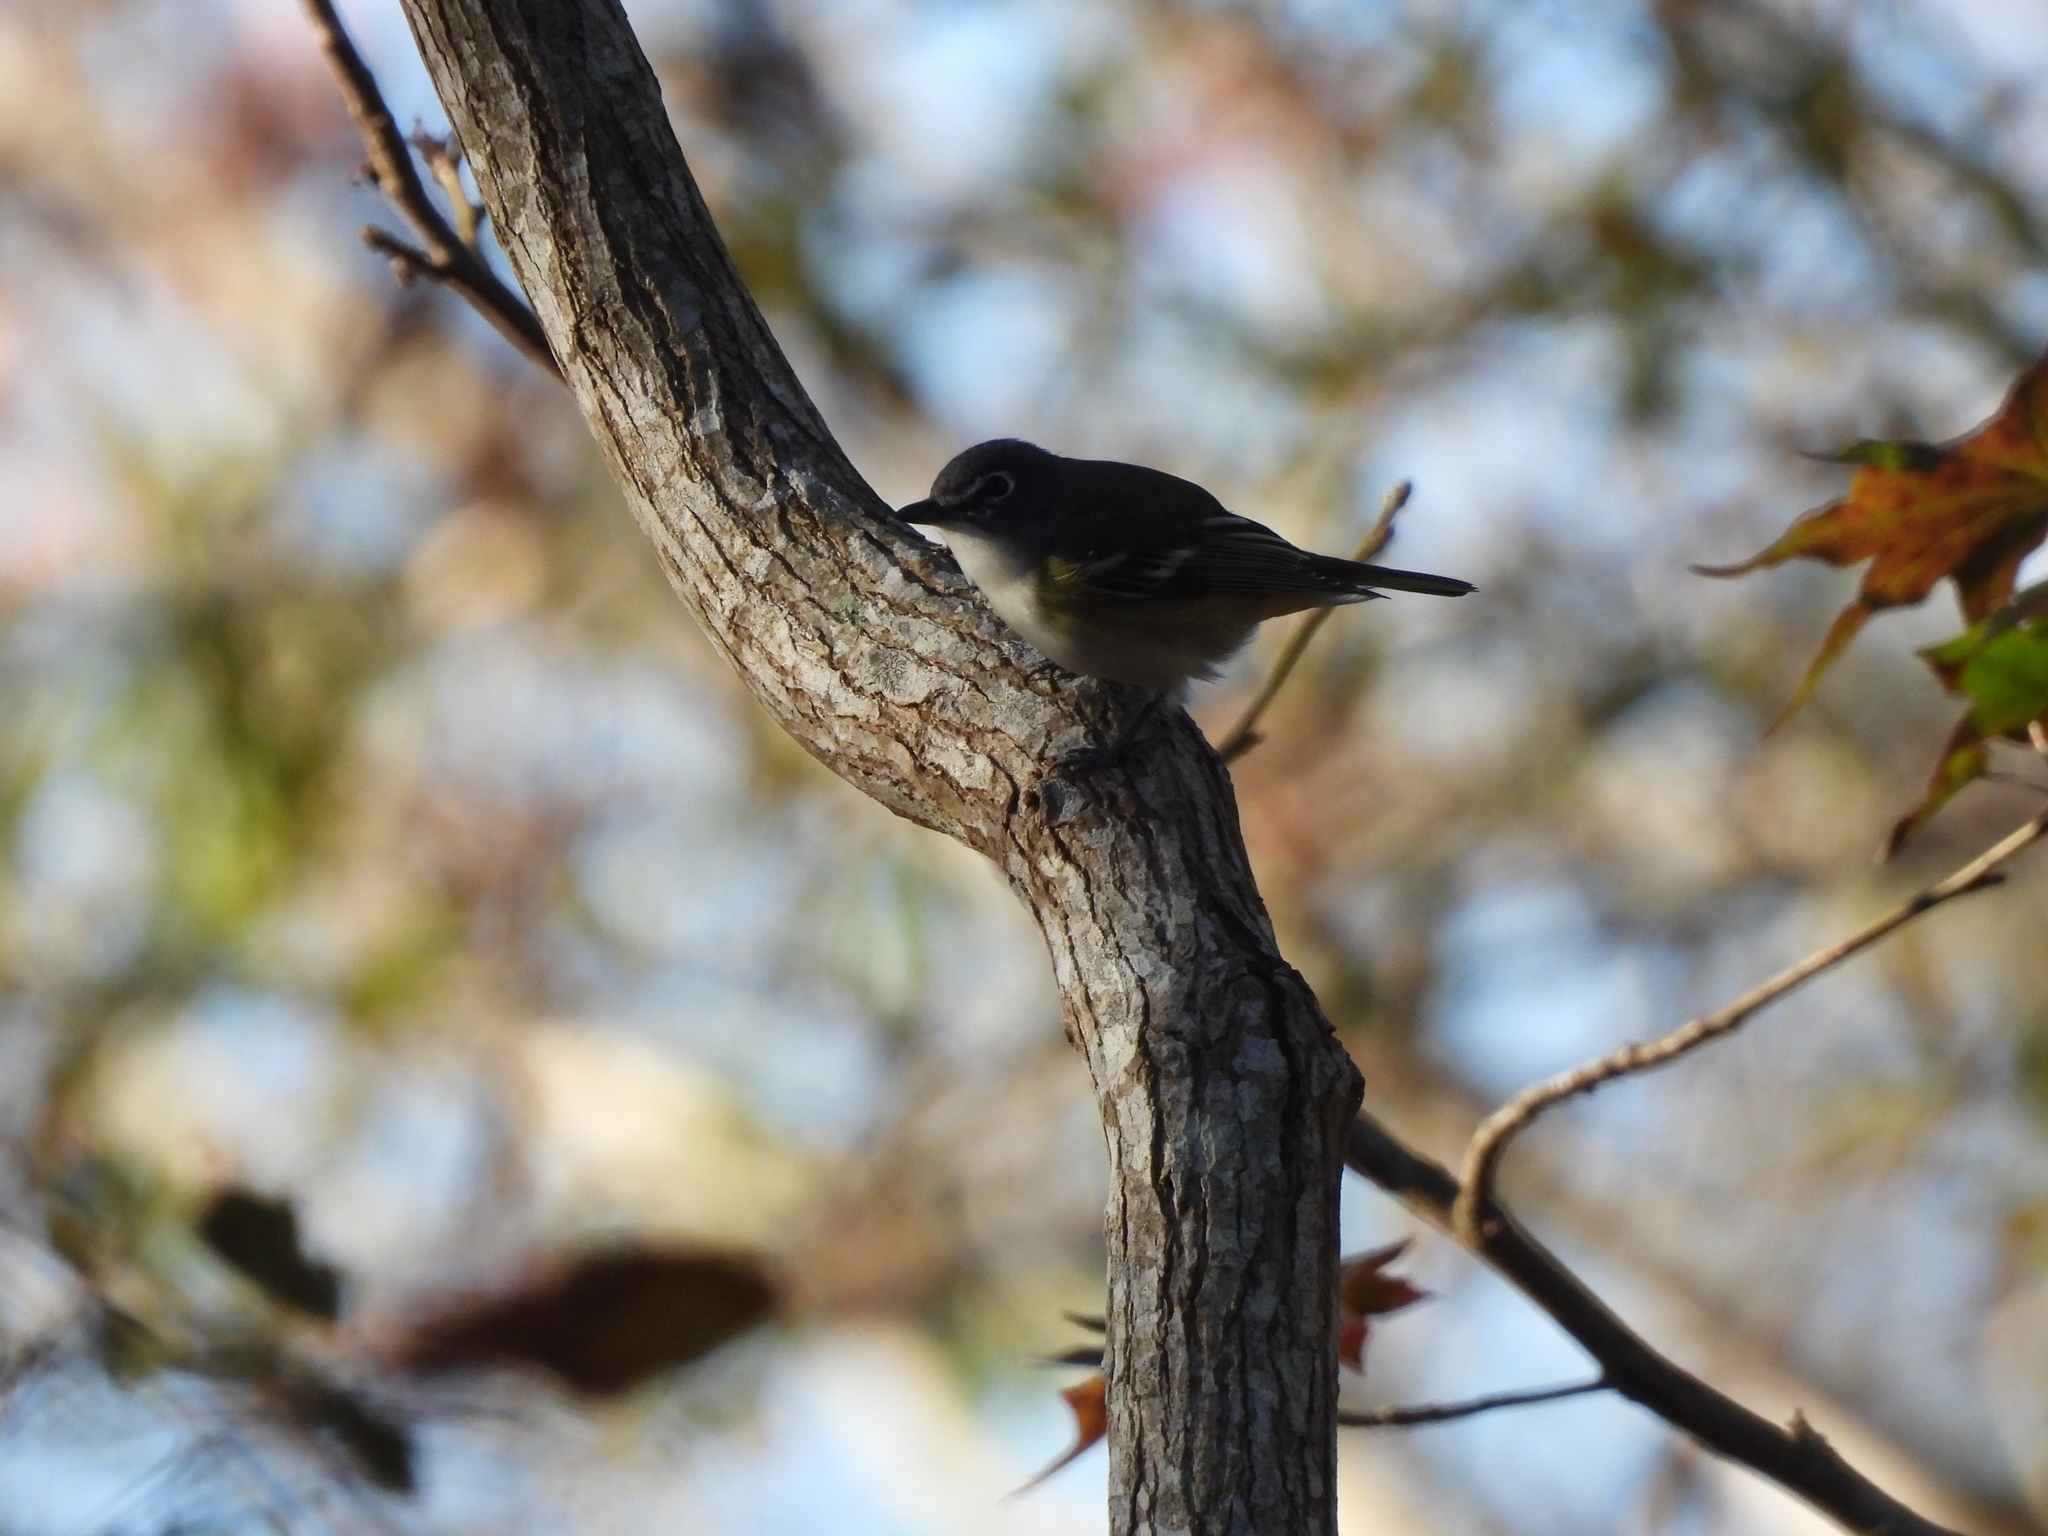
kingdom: Animalia
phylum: Chordata
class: Aves
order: Passeriformes
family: Vireonidae
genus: Vireo
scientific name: Vireo solitarius
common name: Blue-headed vireo
